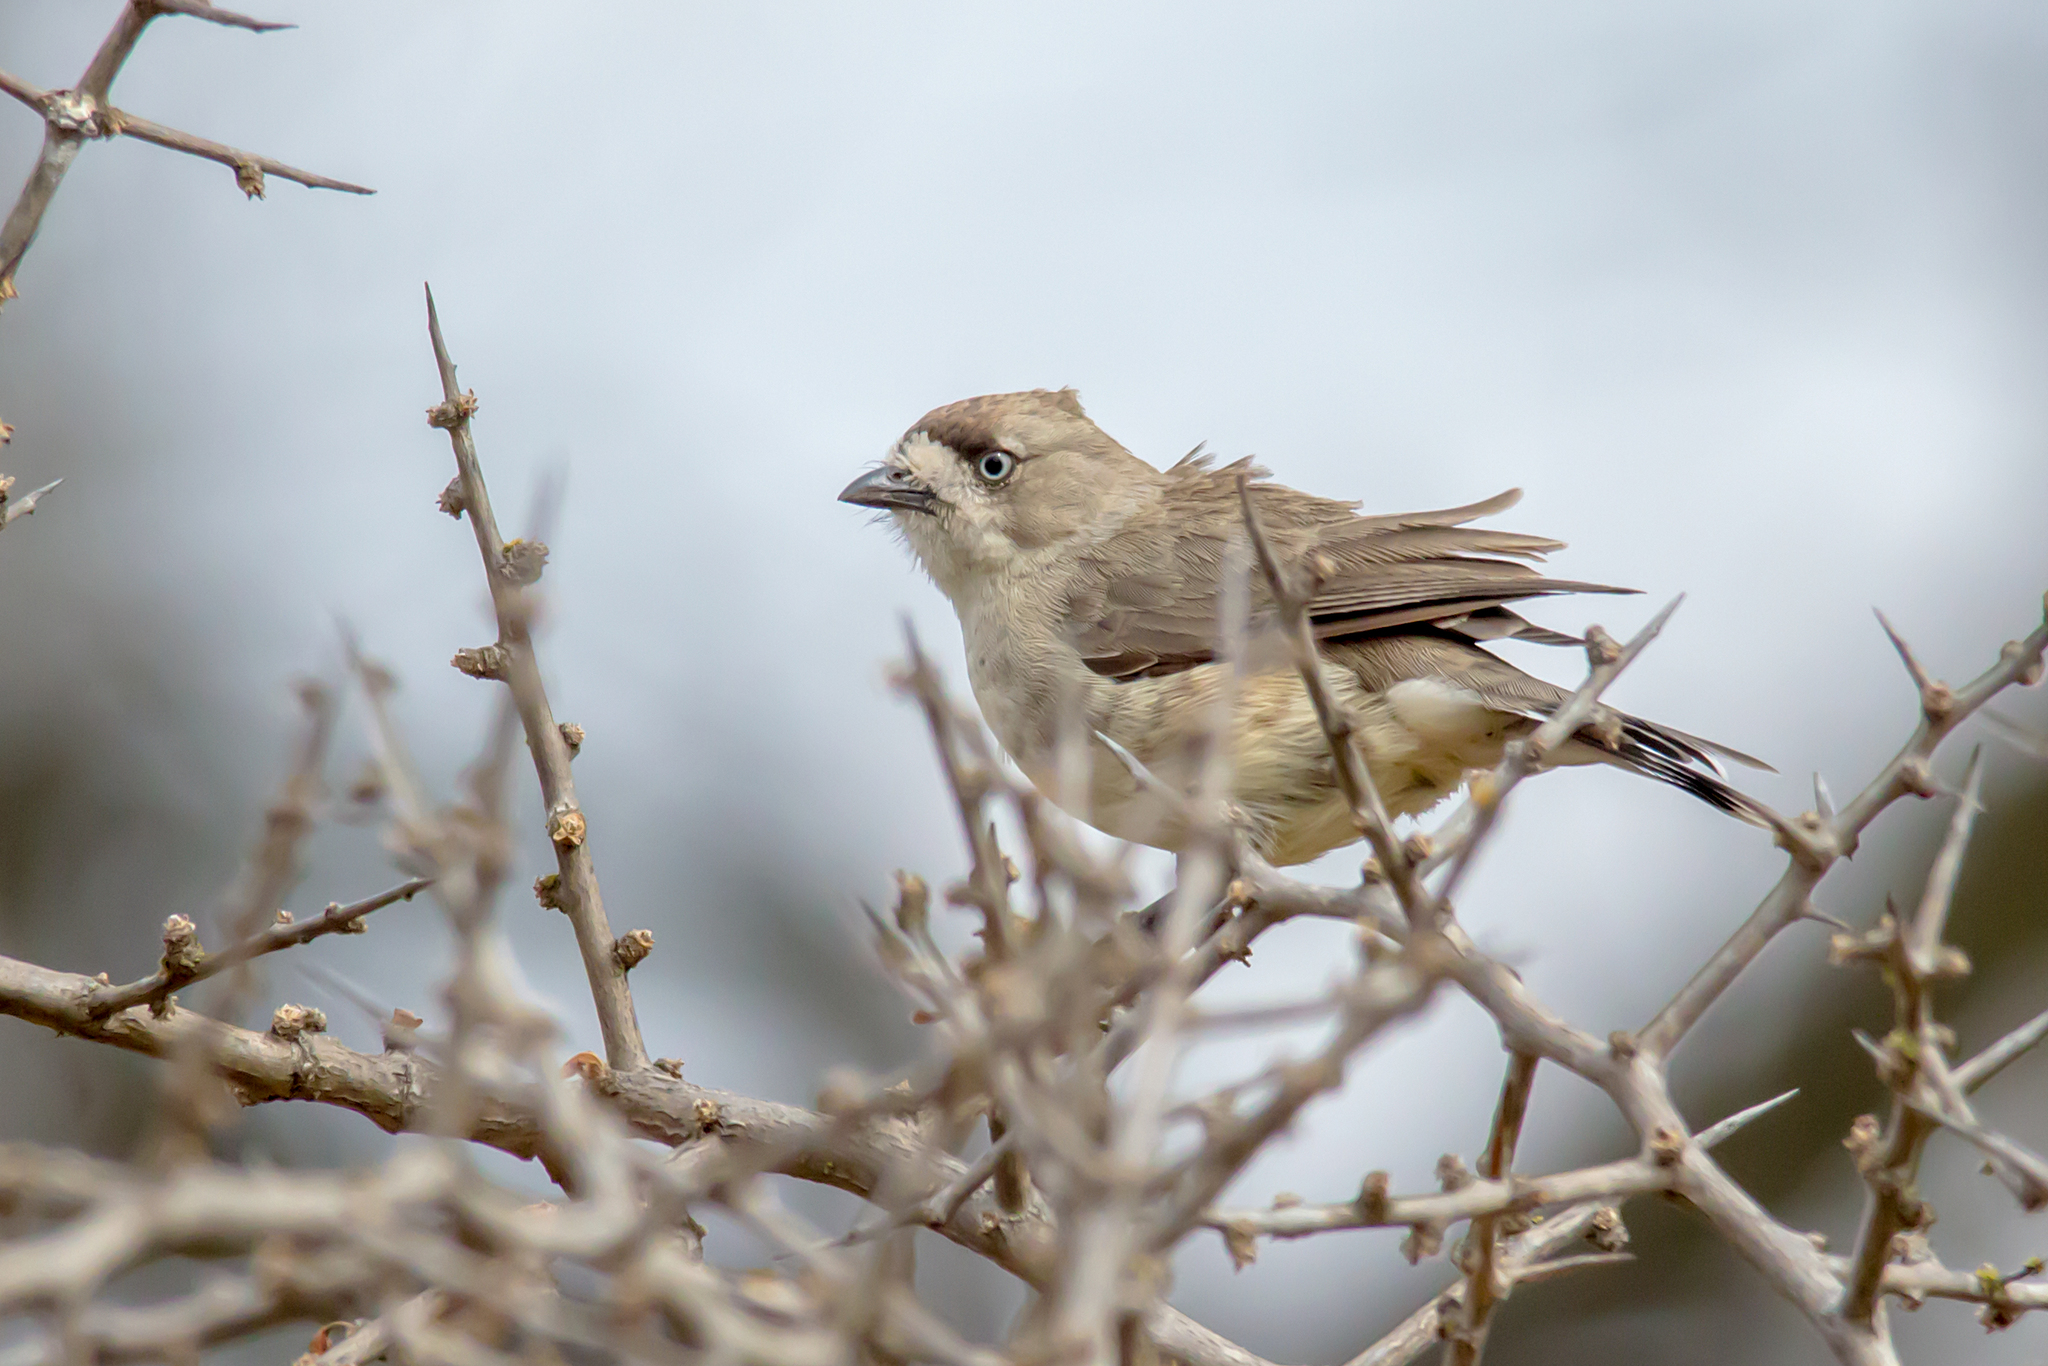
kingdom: Animalia
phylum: Chordata
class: Aves
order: Passeriformes
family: Acanthizidae
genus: Aphelocephala
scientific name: Aphelocephala leucopsis
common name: Southern whiteface
